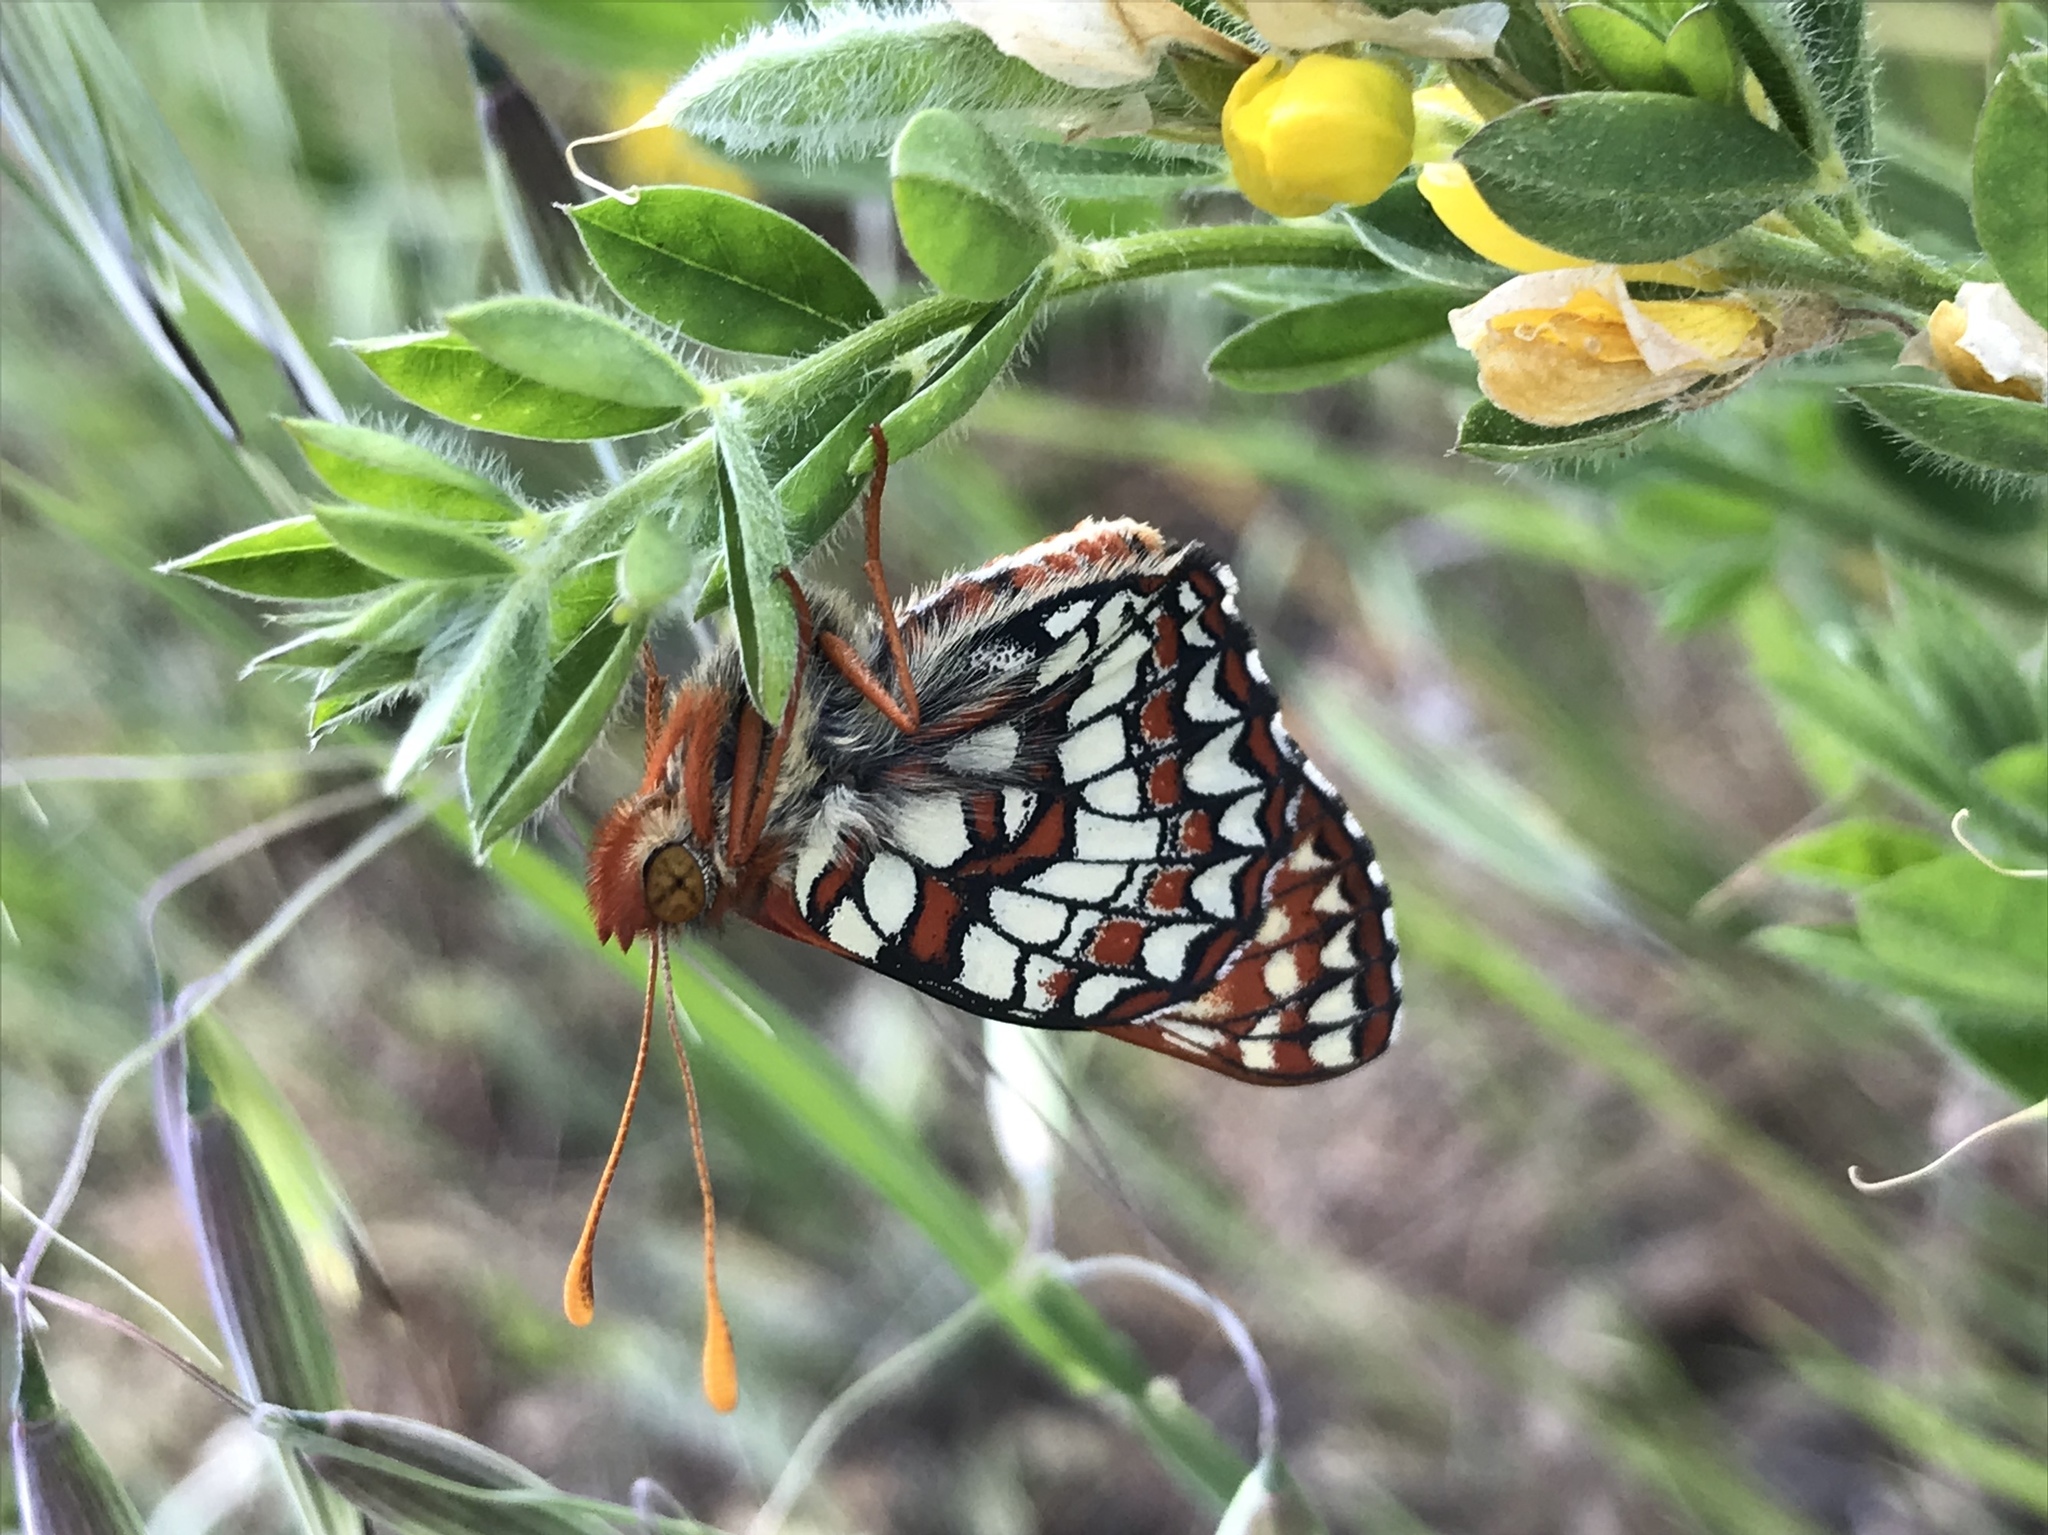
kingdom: Animalia
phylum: Arthropoda
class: Insecta
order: Lepidoptera
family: Nymphalidae
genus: Occidryas
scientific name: Occidryas chalcedona
